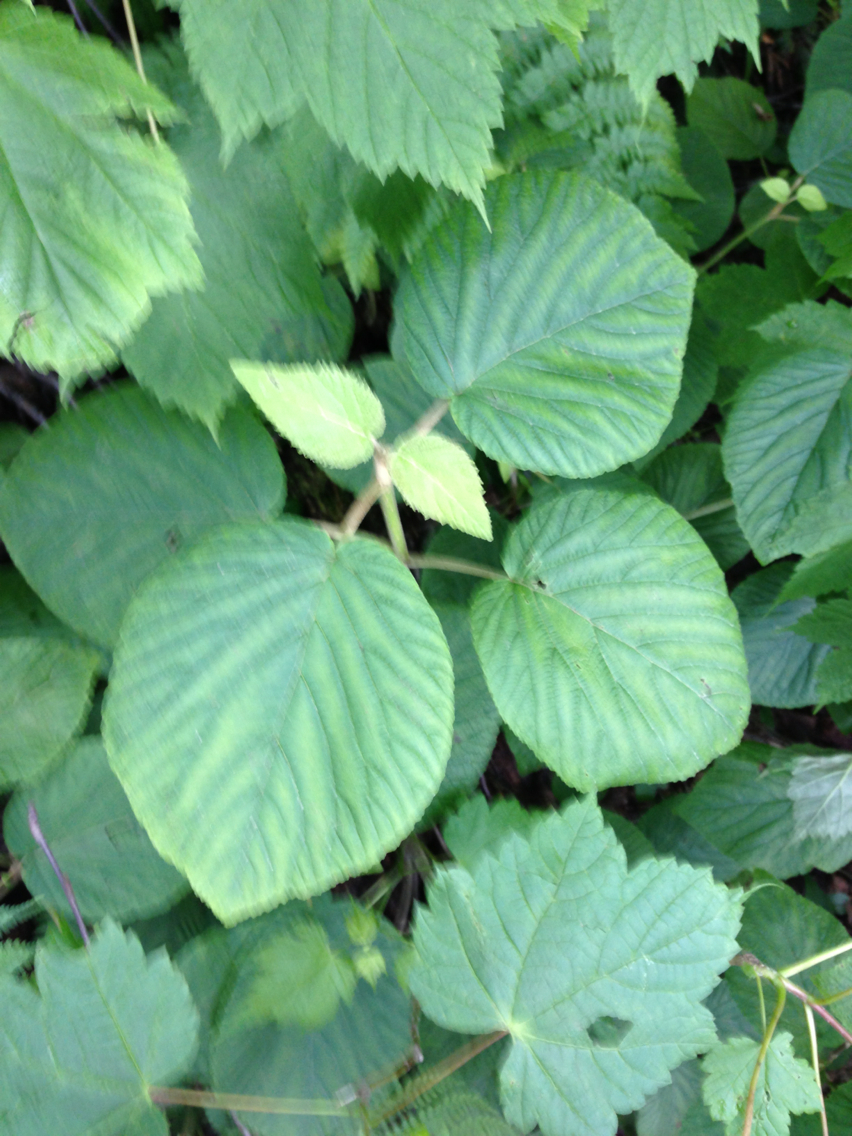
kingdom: Plantae
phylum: Tracheophyta
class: Magnoliopsida
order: Dipsacales
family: Viburnaceae
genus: Viburnum
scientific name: Viburnum lantanoides
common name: Hobblebush
